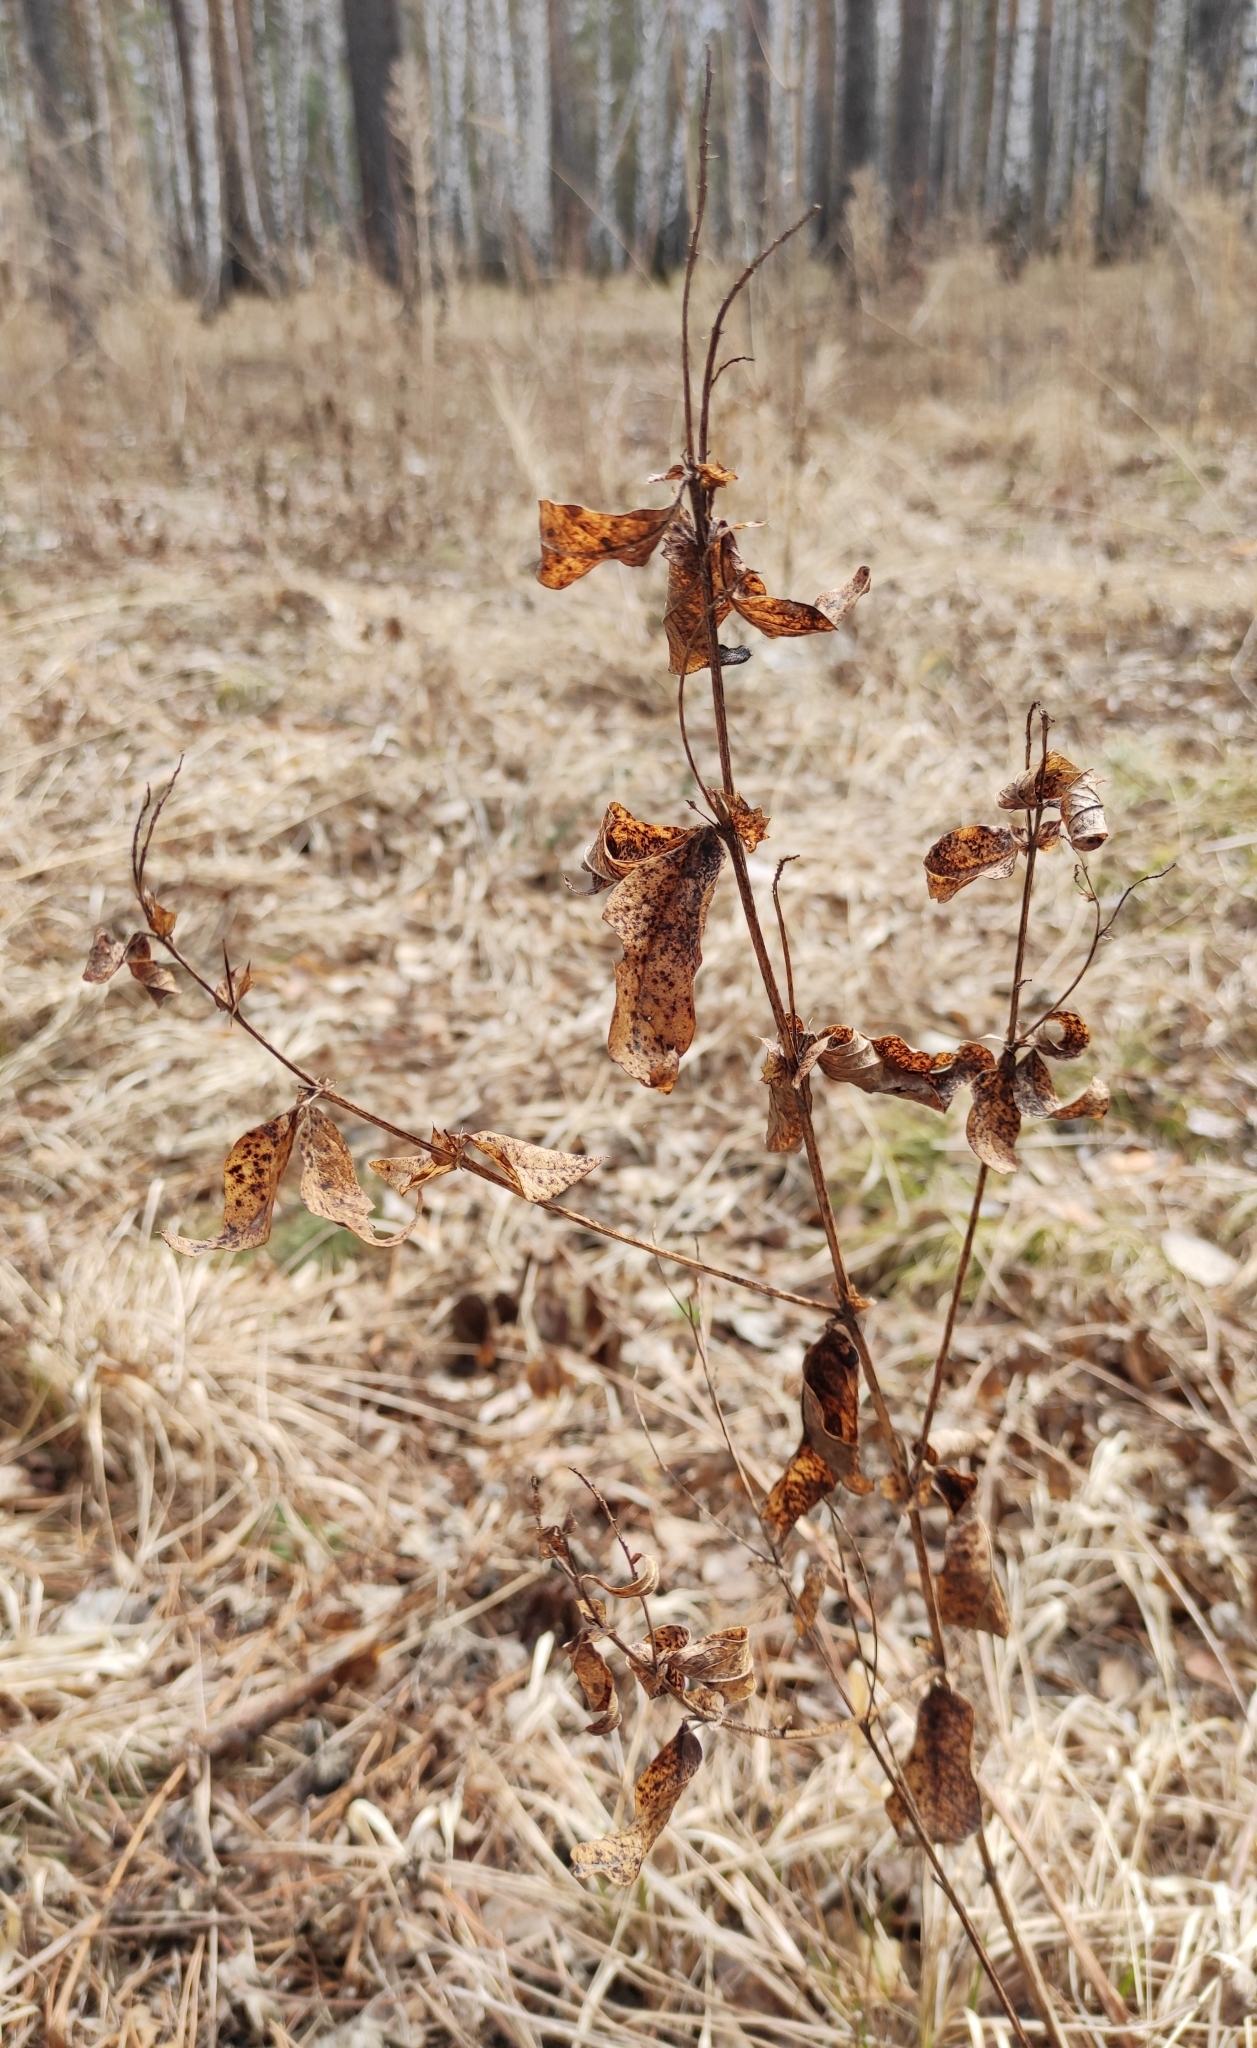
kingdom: Plantae
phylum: Tracheophyta
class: Magnoliopsida
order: Fabales
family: Fabaceae
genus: Vicia
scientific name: Vicia unijuga
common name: Two-leaf vetch
